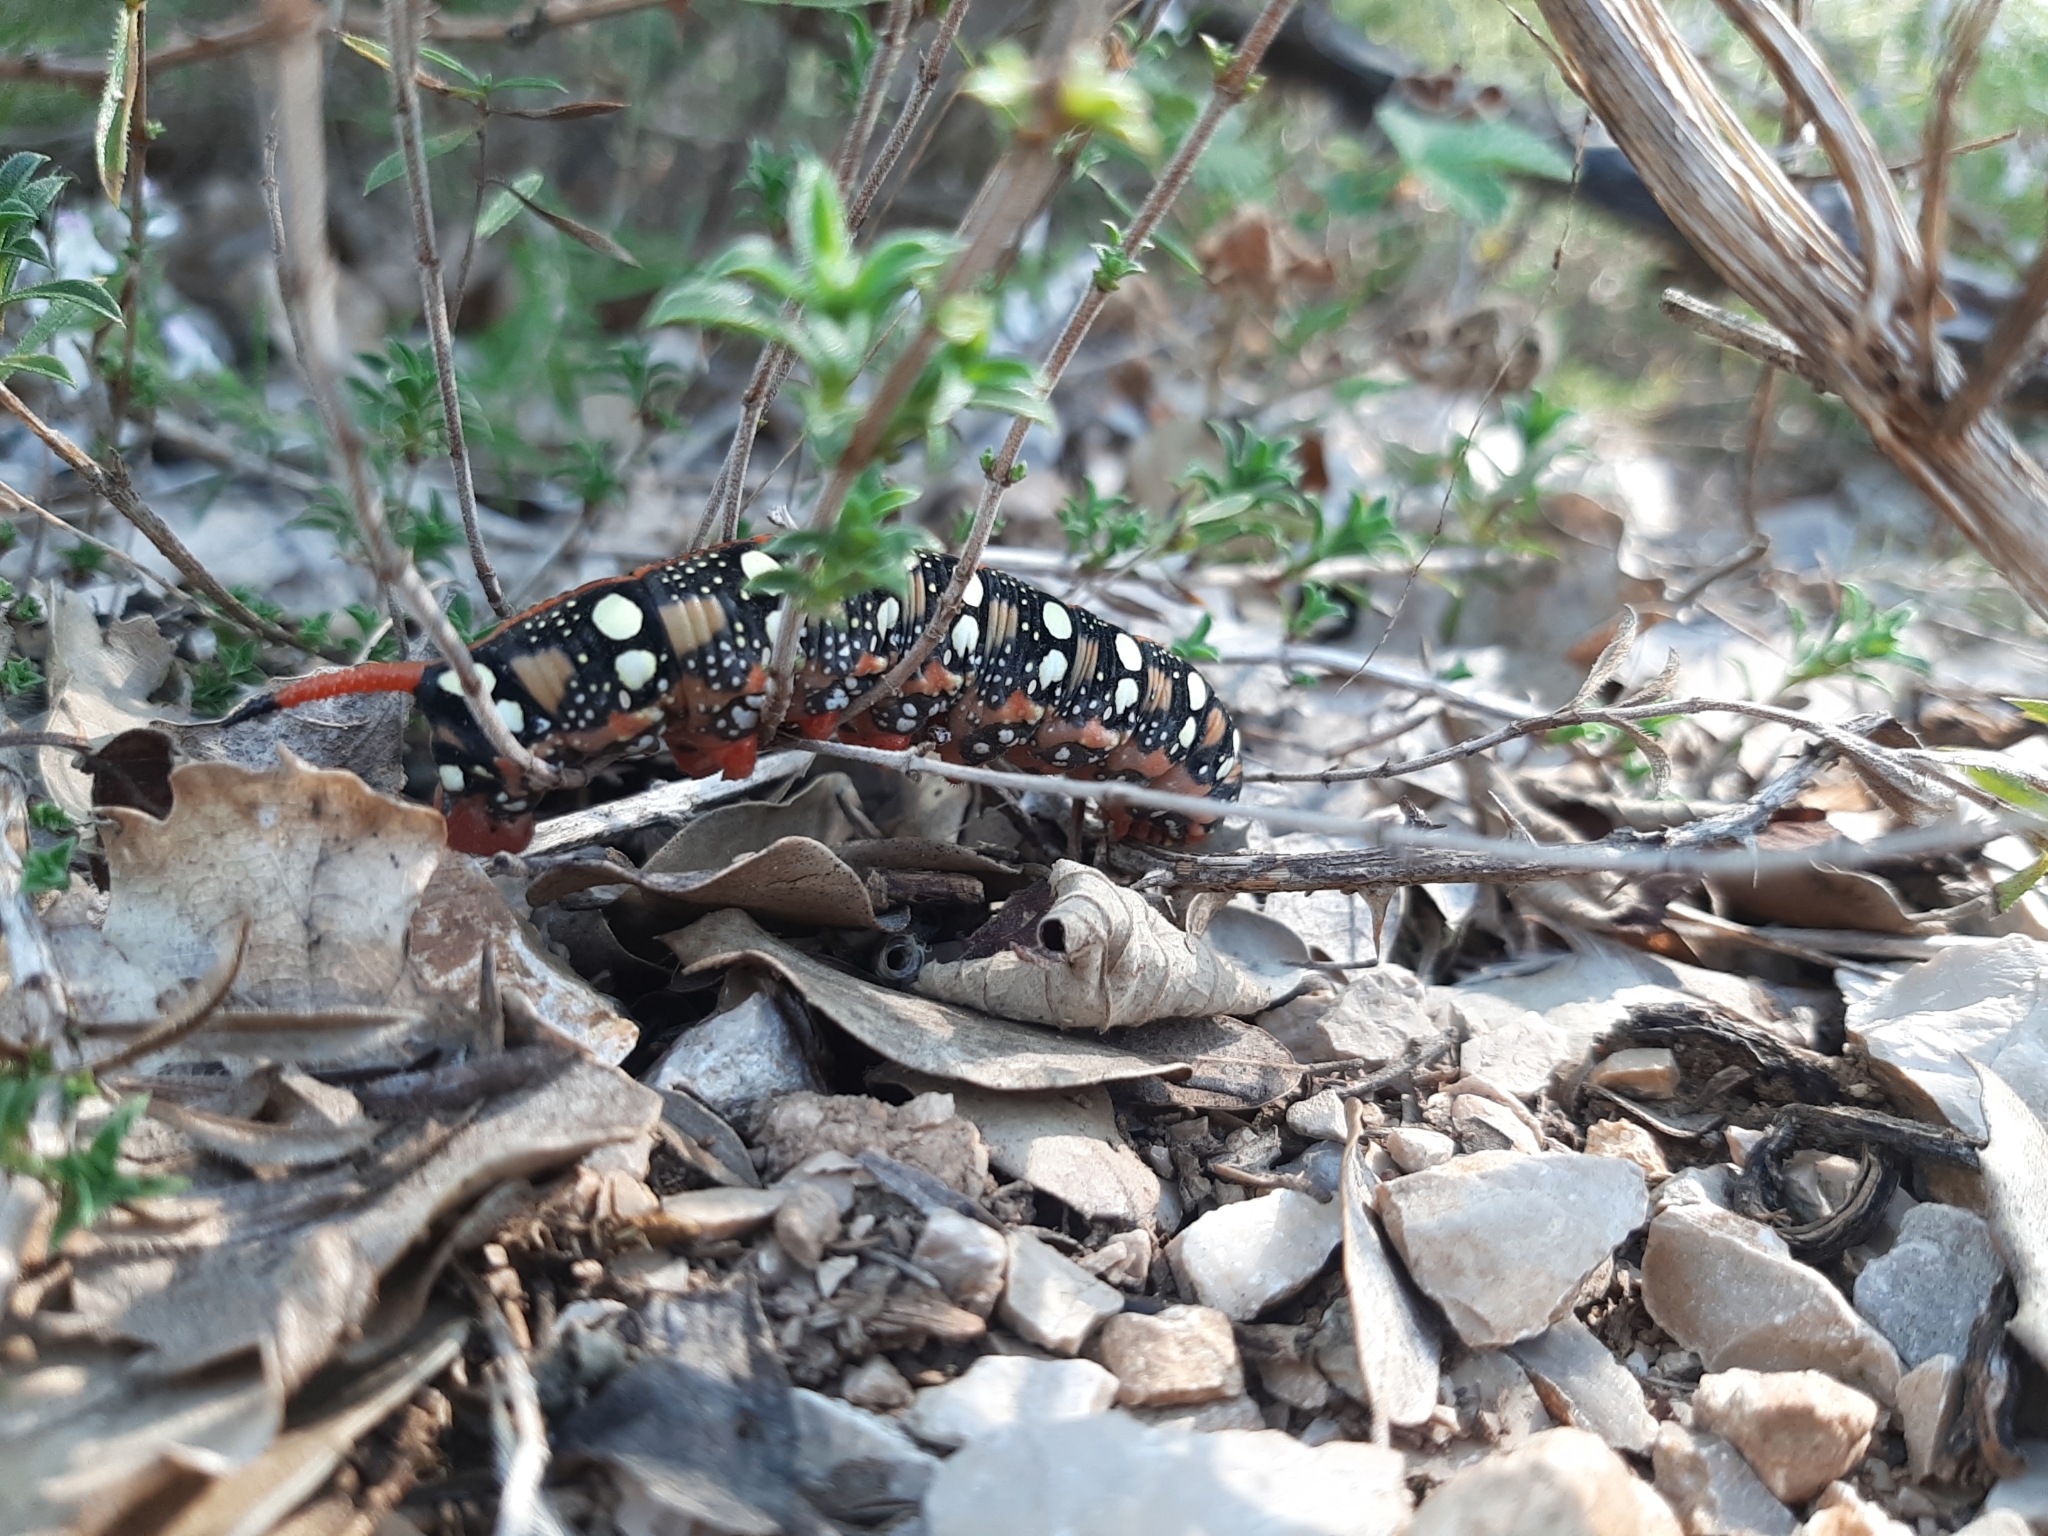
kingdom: Animalia
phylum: Arthropoda
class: Insecta
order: Lepidoptera
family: Sphingidae
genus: Hyles
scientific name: Hyles euphorbiae
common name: Spurge hawk-moth
